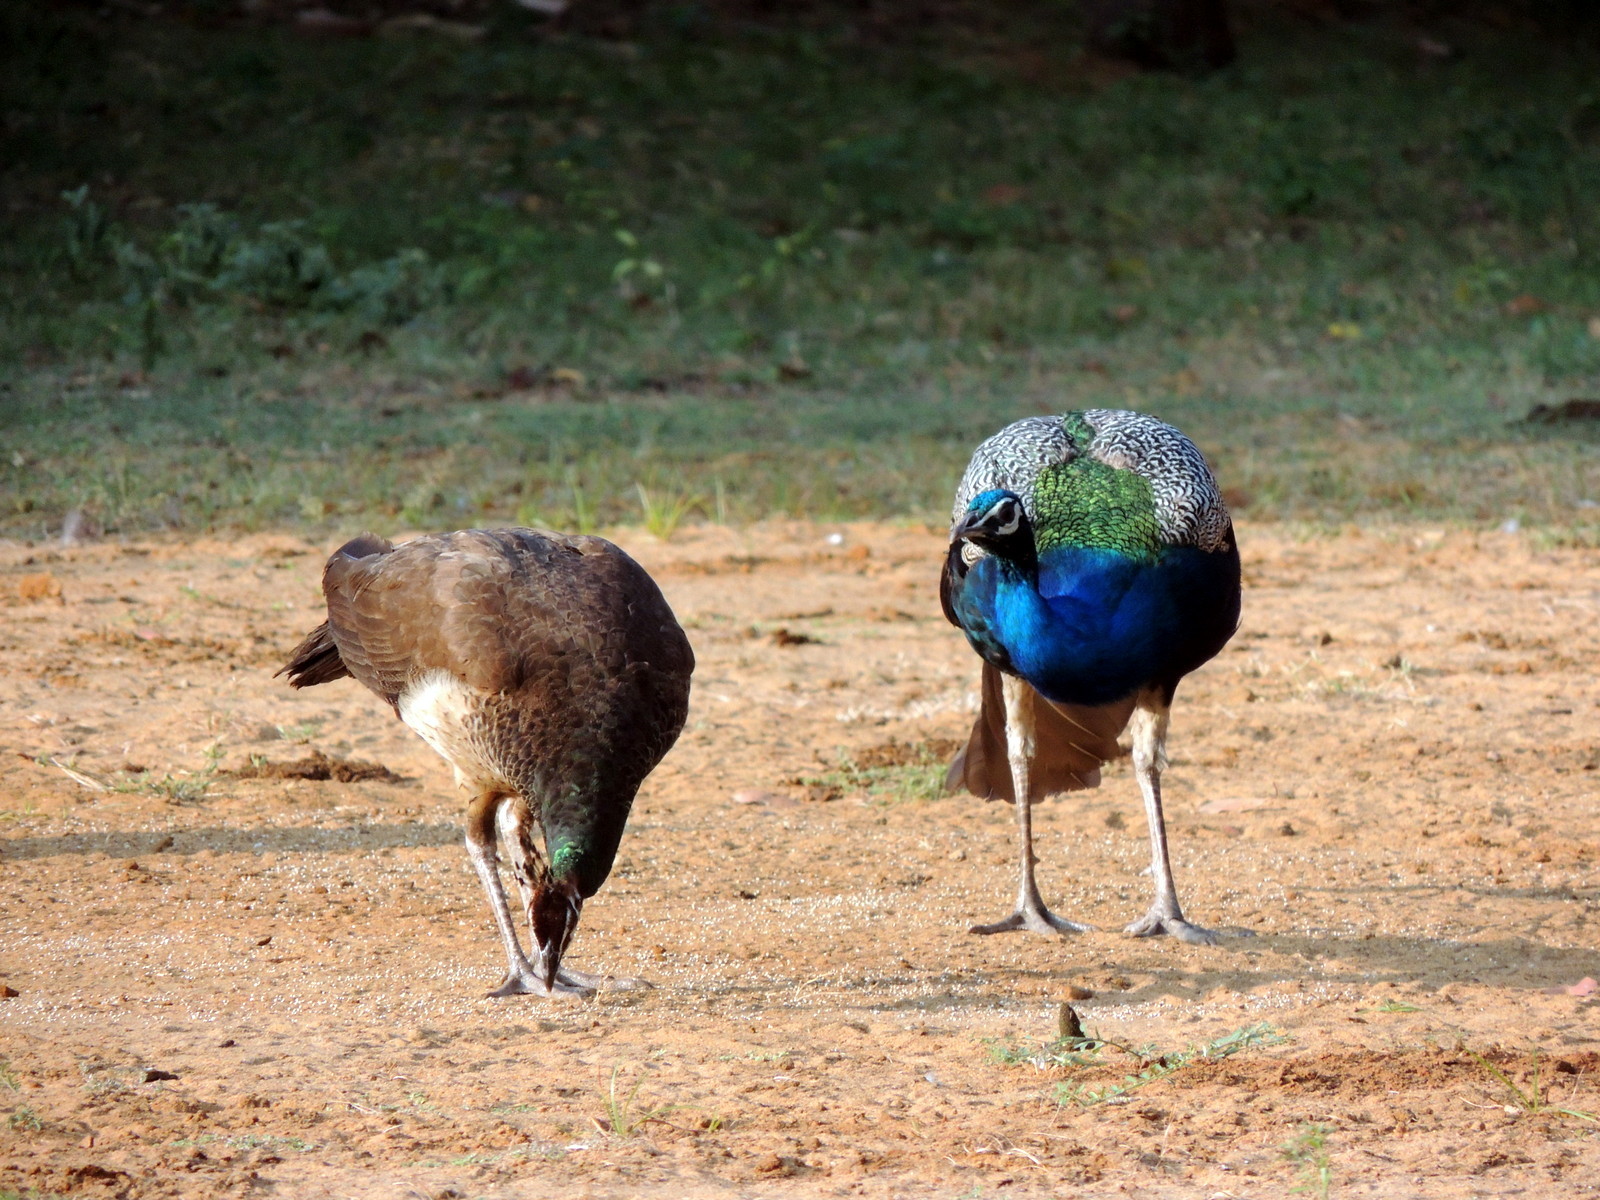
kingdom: Animalia
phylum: Chordata
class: Aves
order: Galliformes
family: Phasianidae
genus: Pavo
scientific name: Pavo cristatus
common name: Indian peafowl
